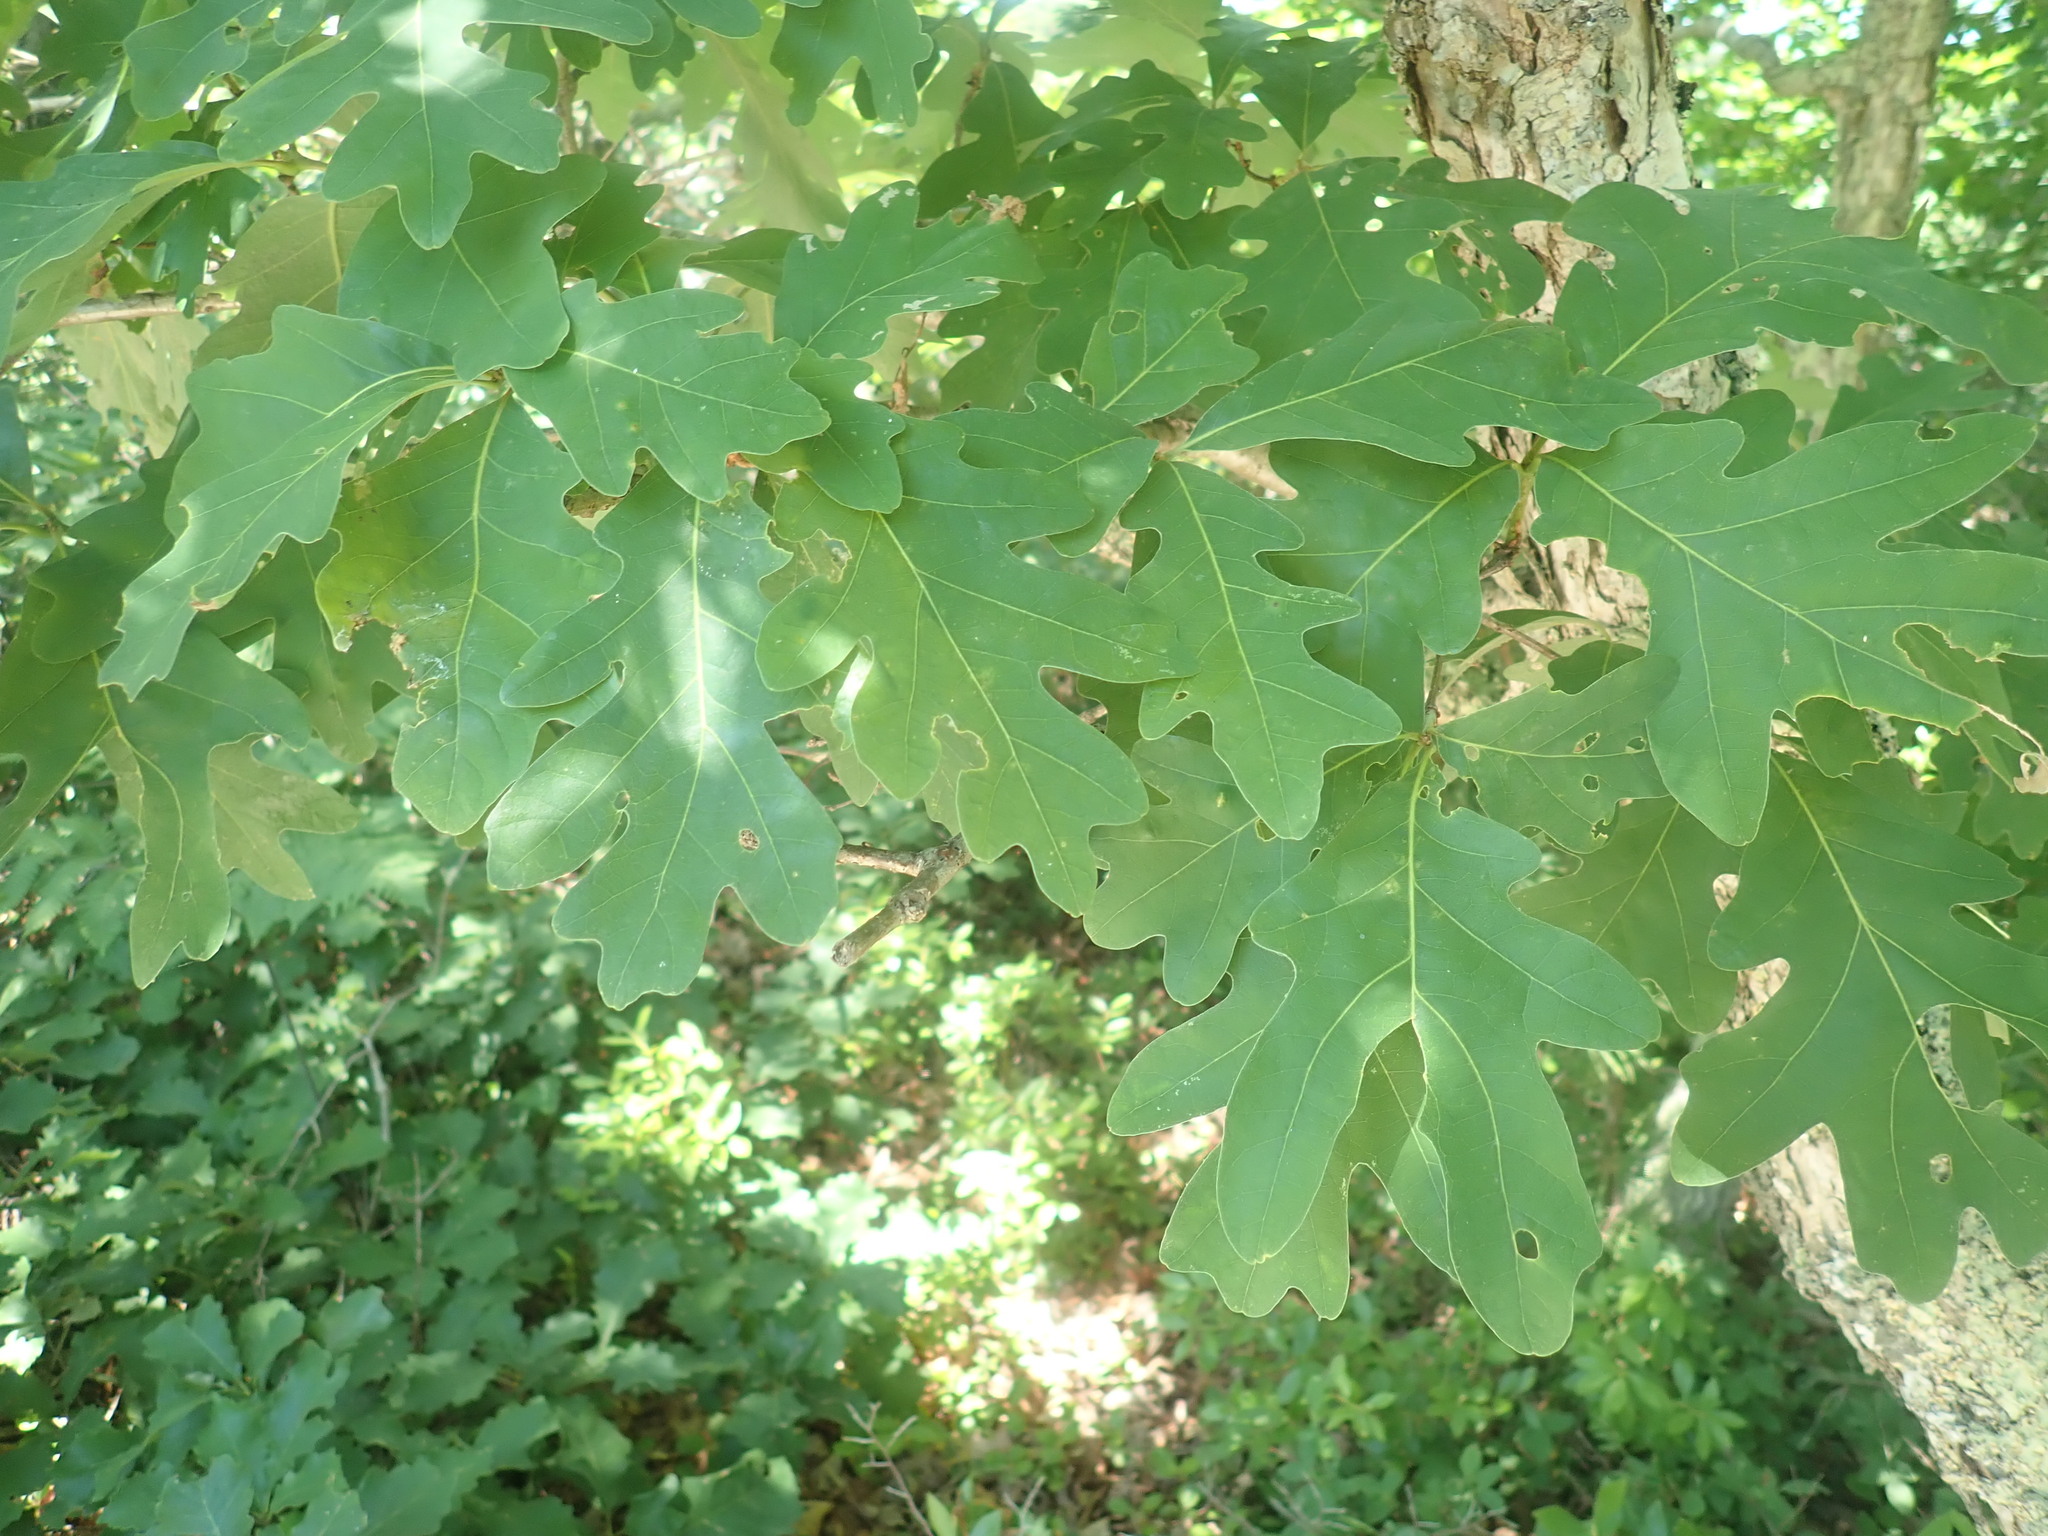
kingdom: Plantae
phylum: Tracheophyta
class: Magnoliopsida
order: Fagales
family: Fagaceae
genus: Quercus
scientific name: Quercus alba
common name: White oak
